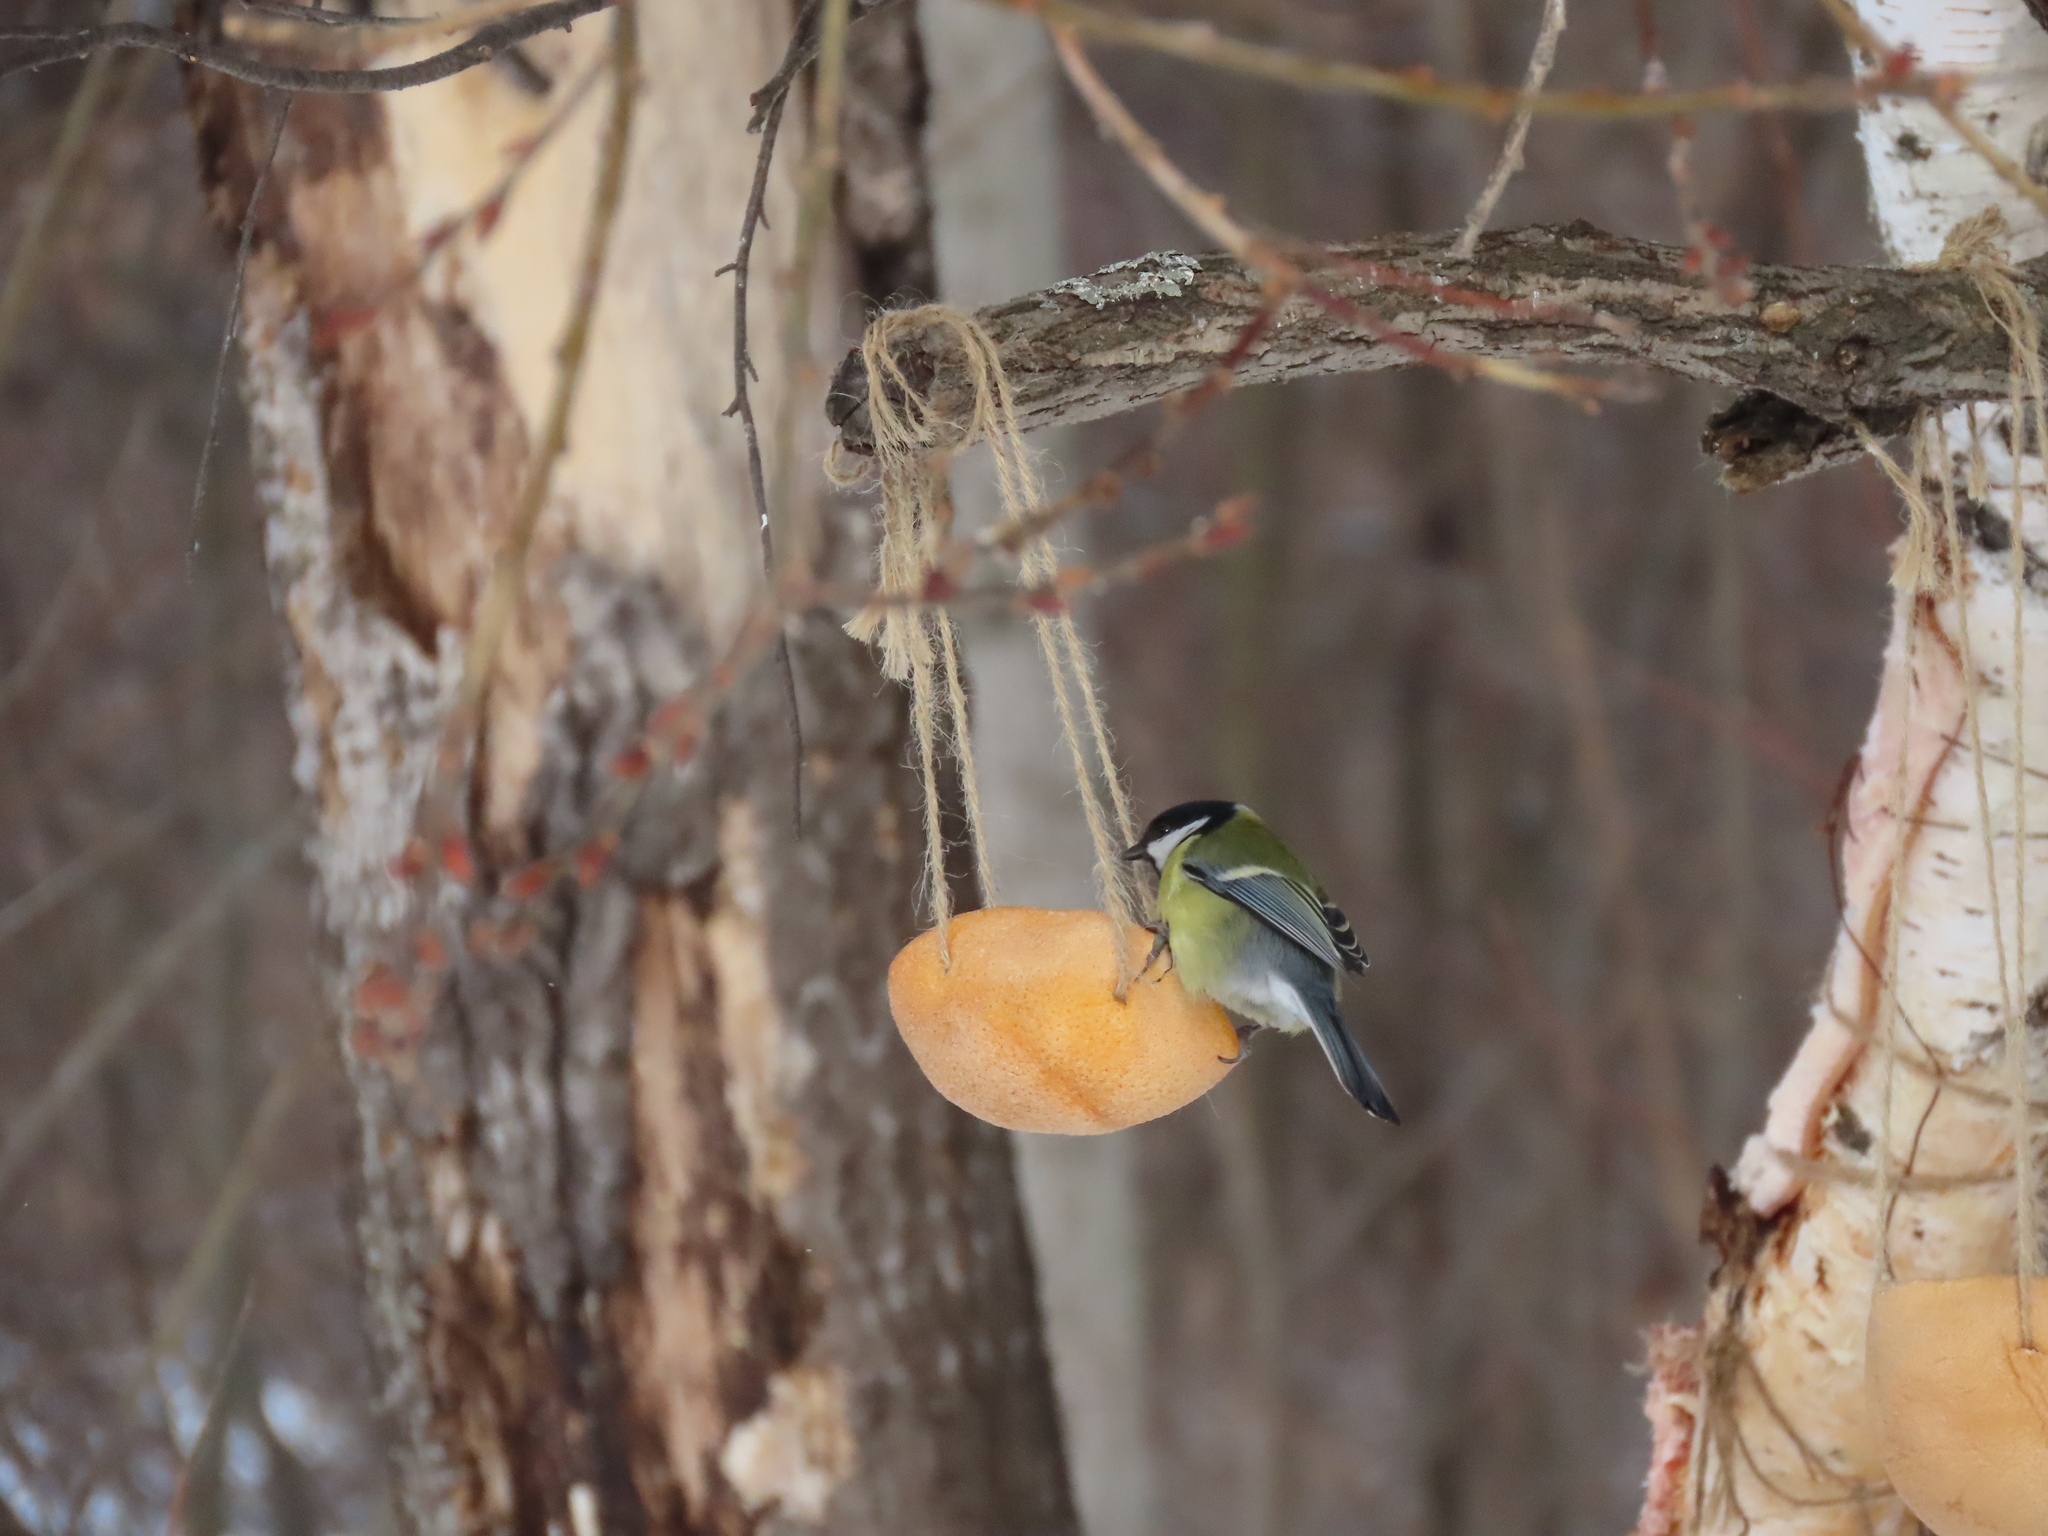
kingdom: Animalia
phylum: Chordata
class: Aves
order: Passeriformes
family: Paridae
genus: Parus
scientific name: Parus major
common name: Great tit
